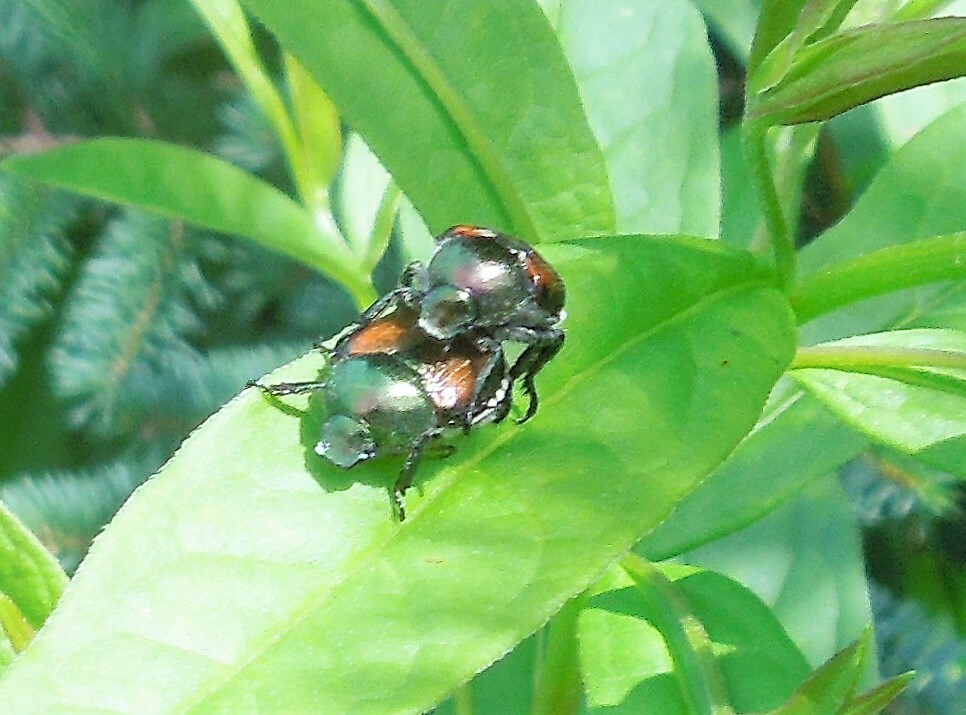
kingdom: Animalia
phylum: Arthropoda
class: Insecta
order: Coleoptera
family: Scarabaeidae
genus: Popillia
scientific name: Popillia japonica
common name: Japanese beetle
